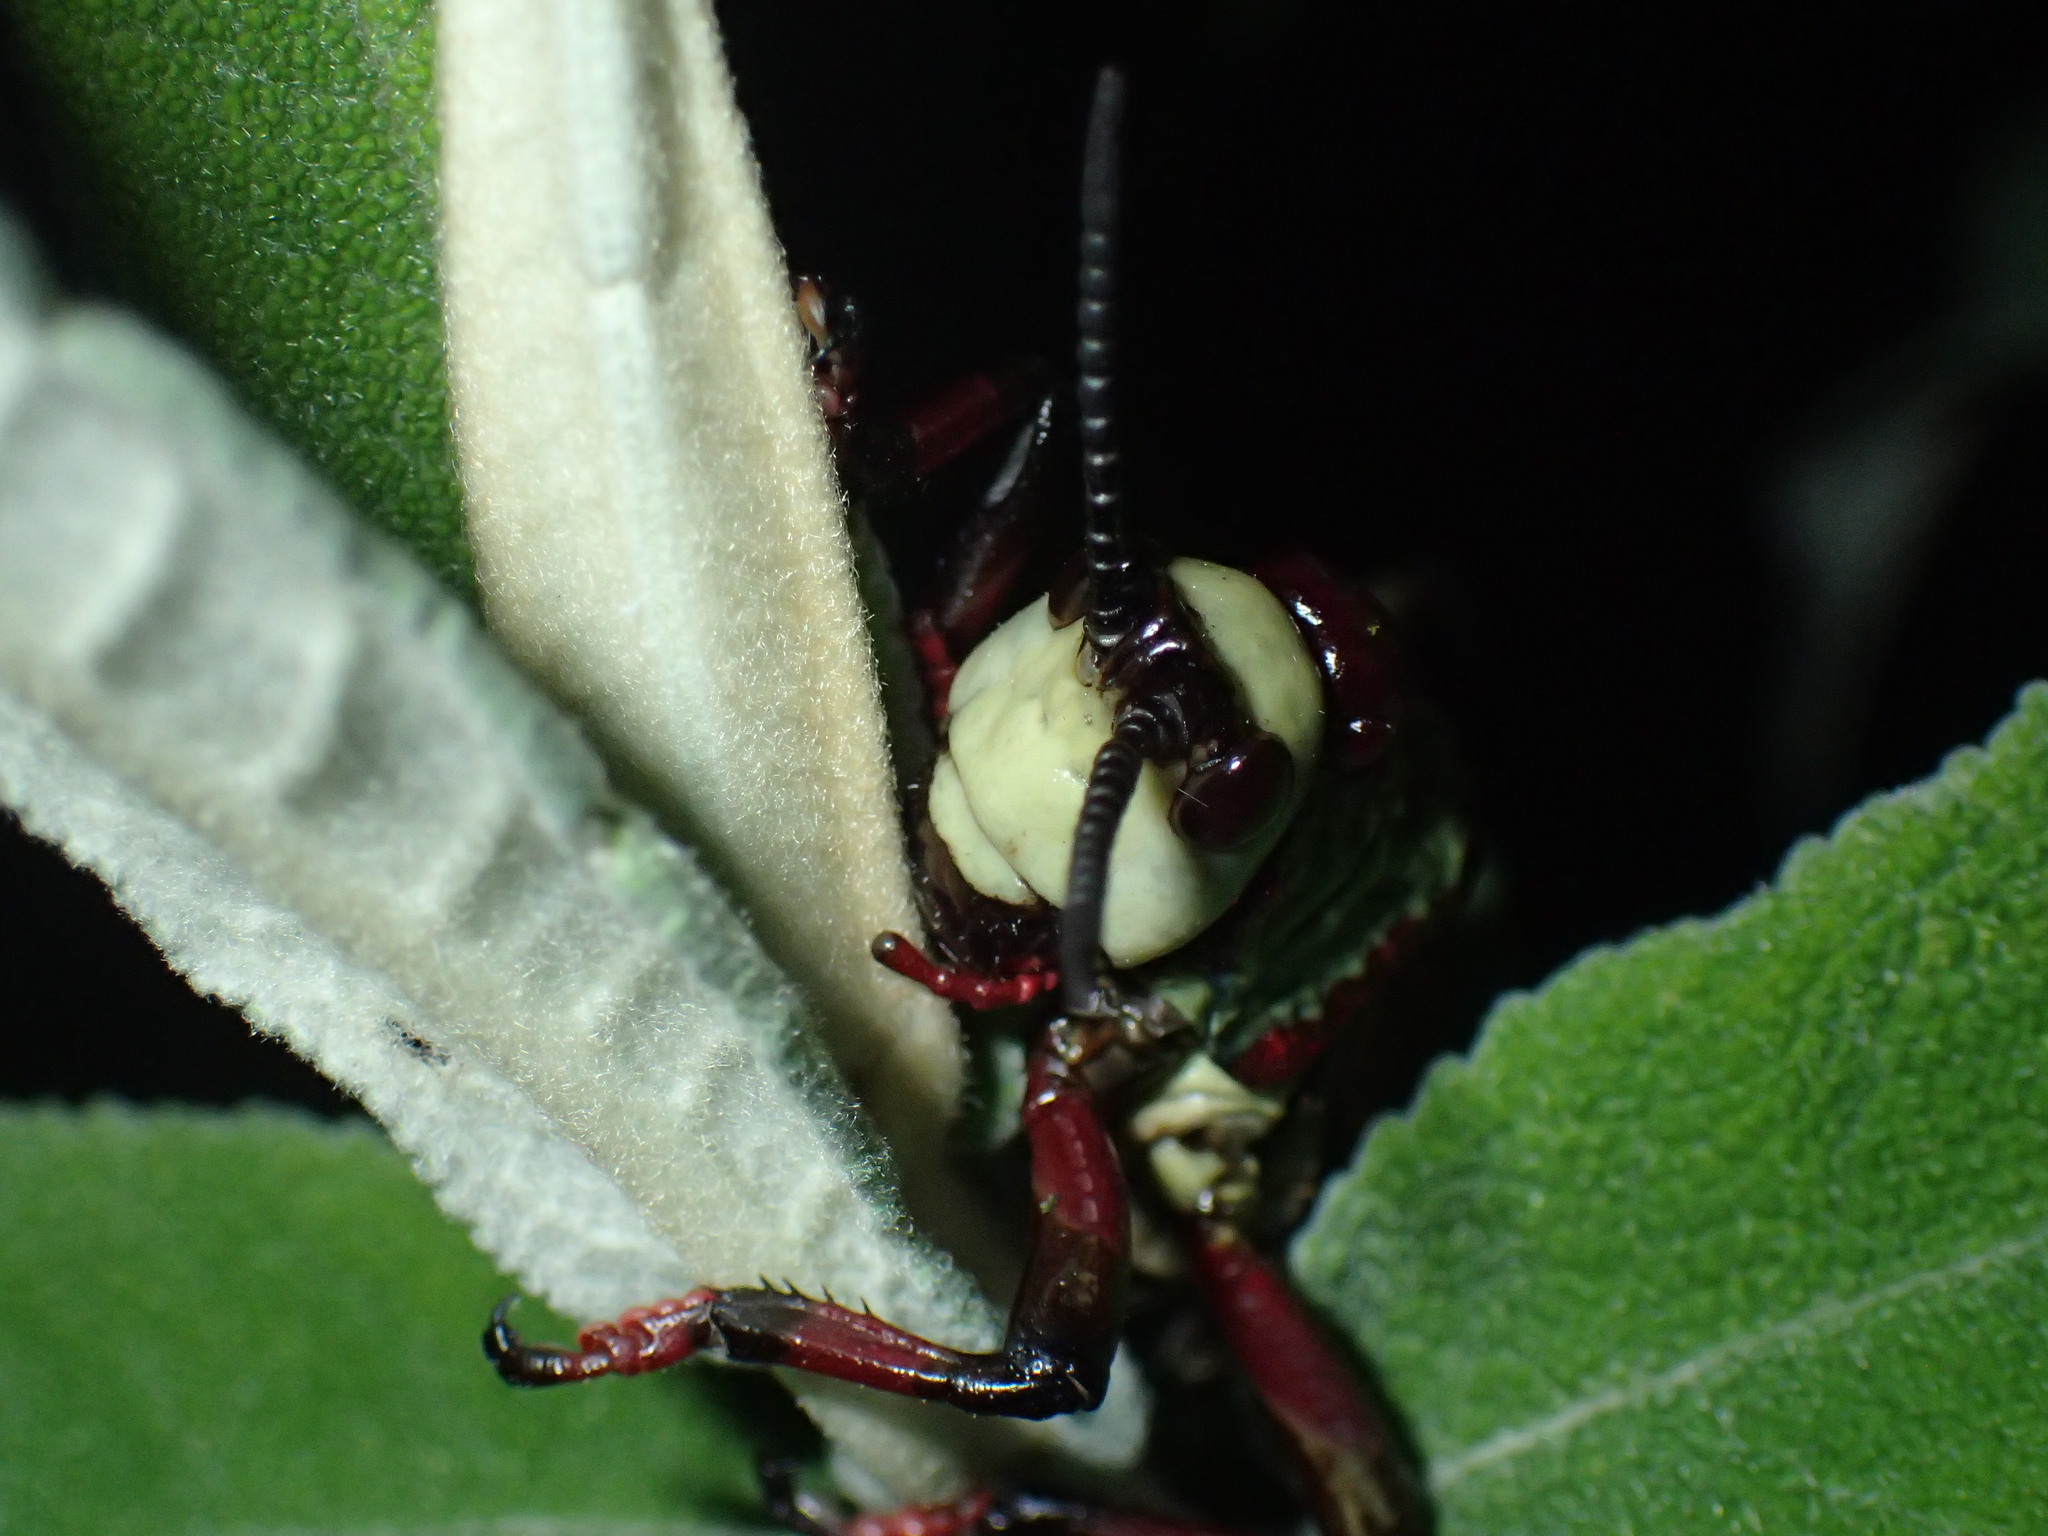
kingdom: Animalia
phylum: Arthropoda
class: Insecta
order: Orthoptera
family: Pyrgomorphidae
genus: Dictyophorus
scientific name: Dictyophorus spumans
